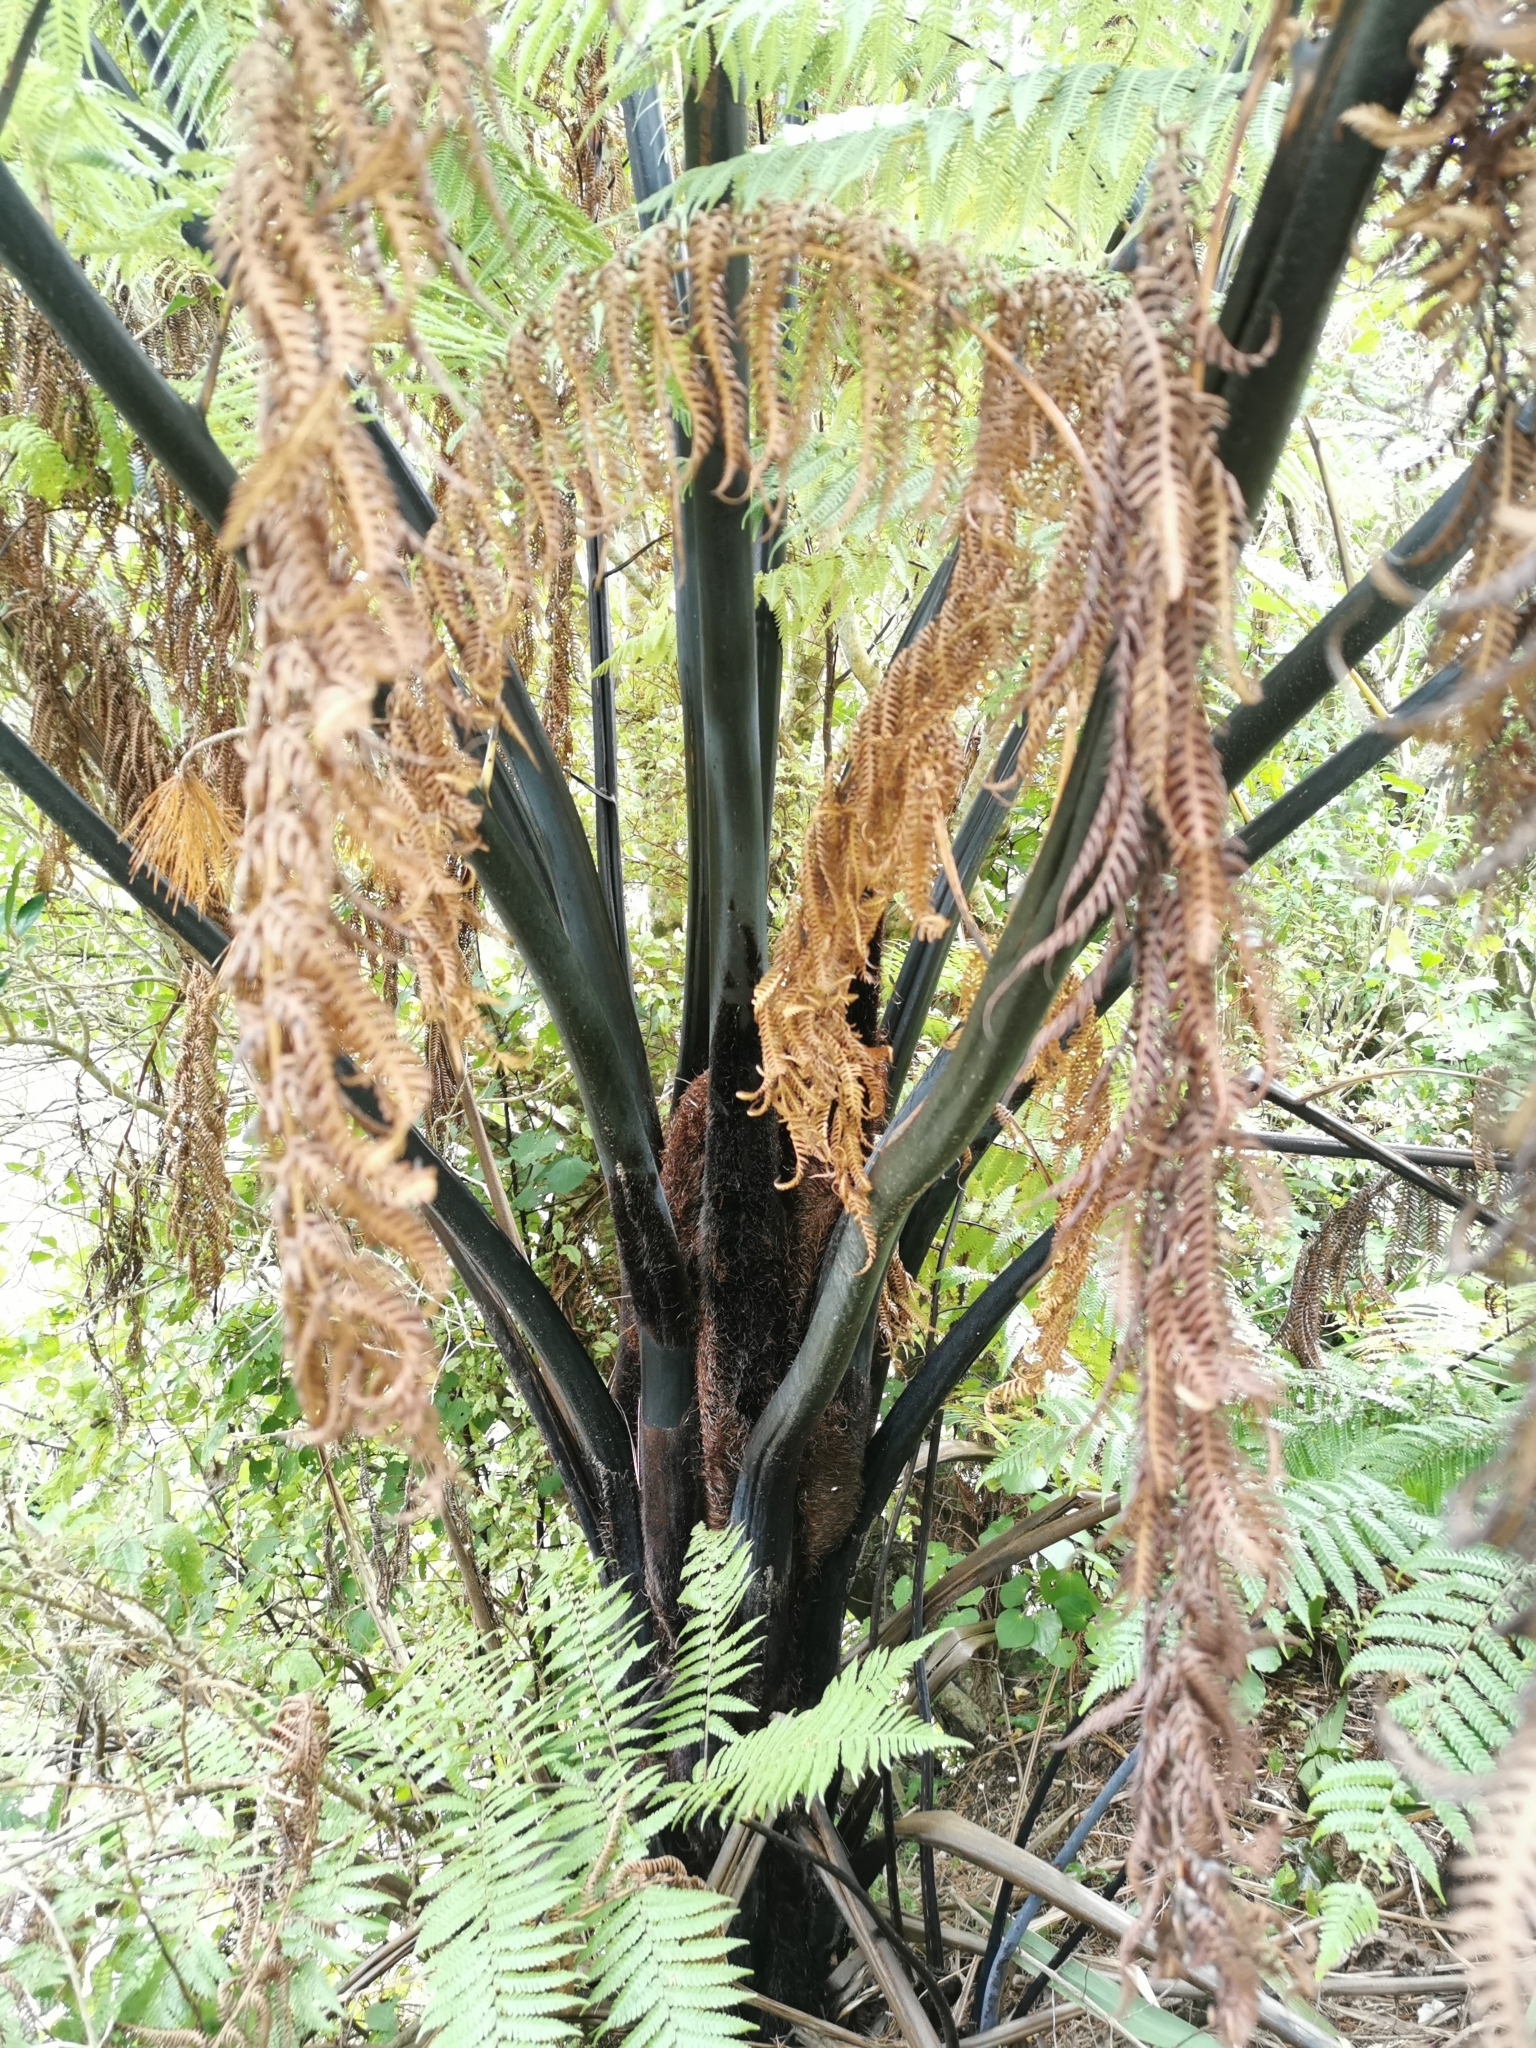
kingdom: Plantae
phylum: Tracheophyta
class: Polypodiopsida
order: Cyatheales
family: Cyatheaceae
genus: Sphaeropteris
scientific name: Sphaeropteris medullaris
